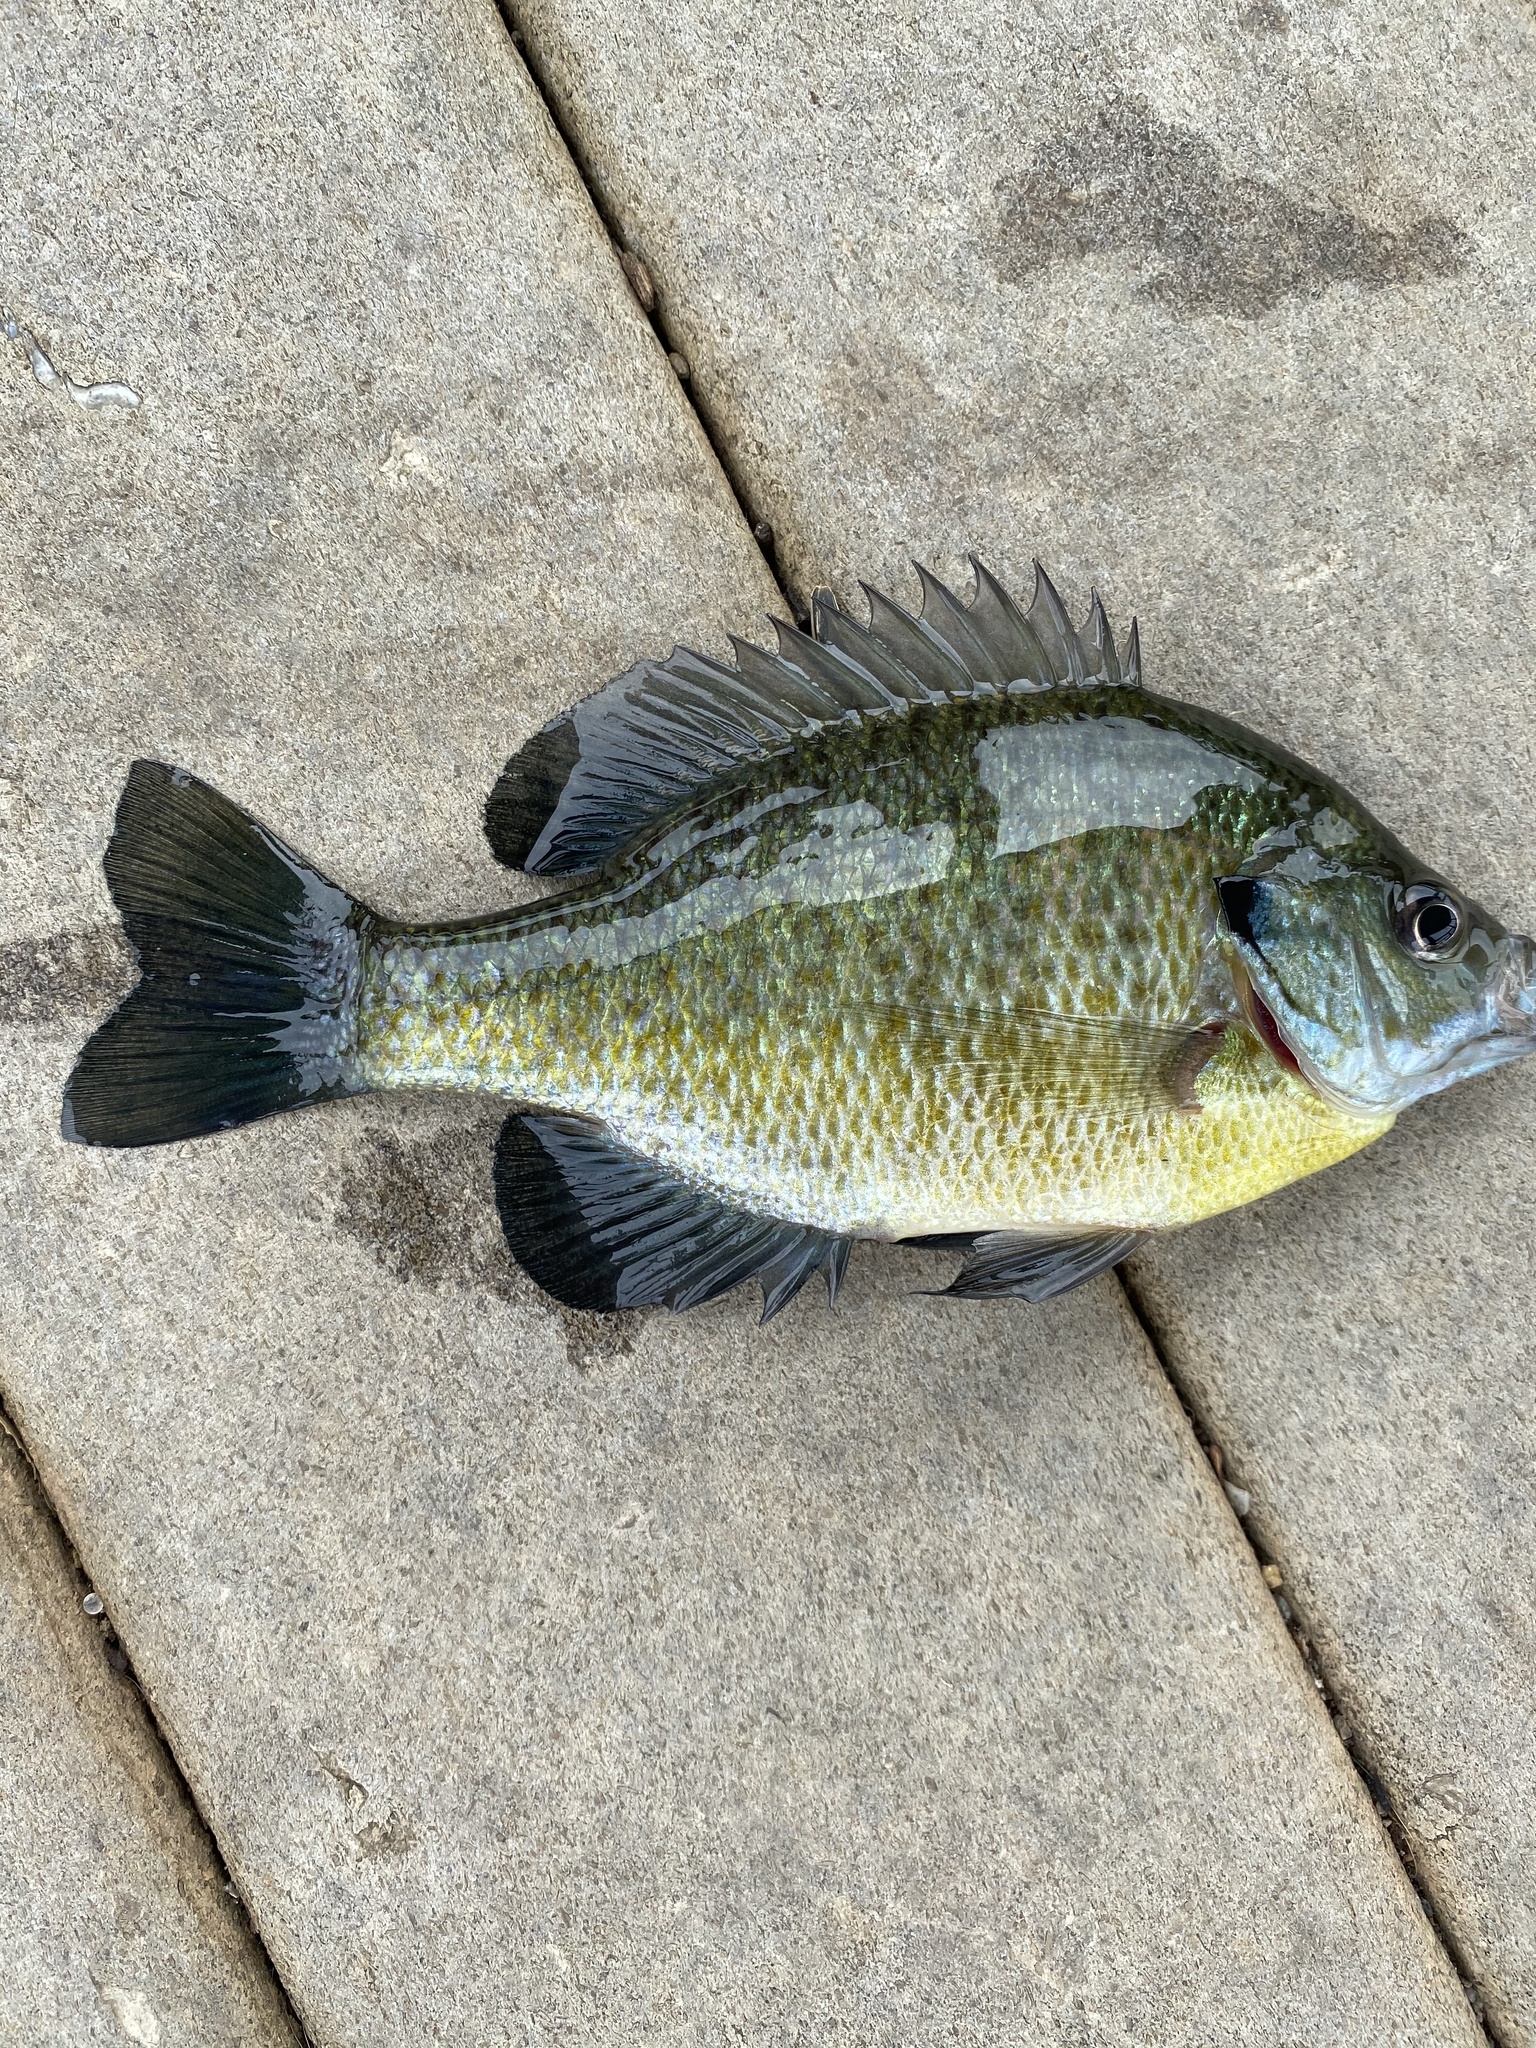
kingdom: Animalia
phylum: Chordata
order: Perciformes
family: Centrarchidae
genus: Lepomis
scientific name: Lepomis macrochirus
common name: Bluegill
